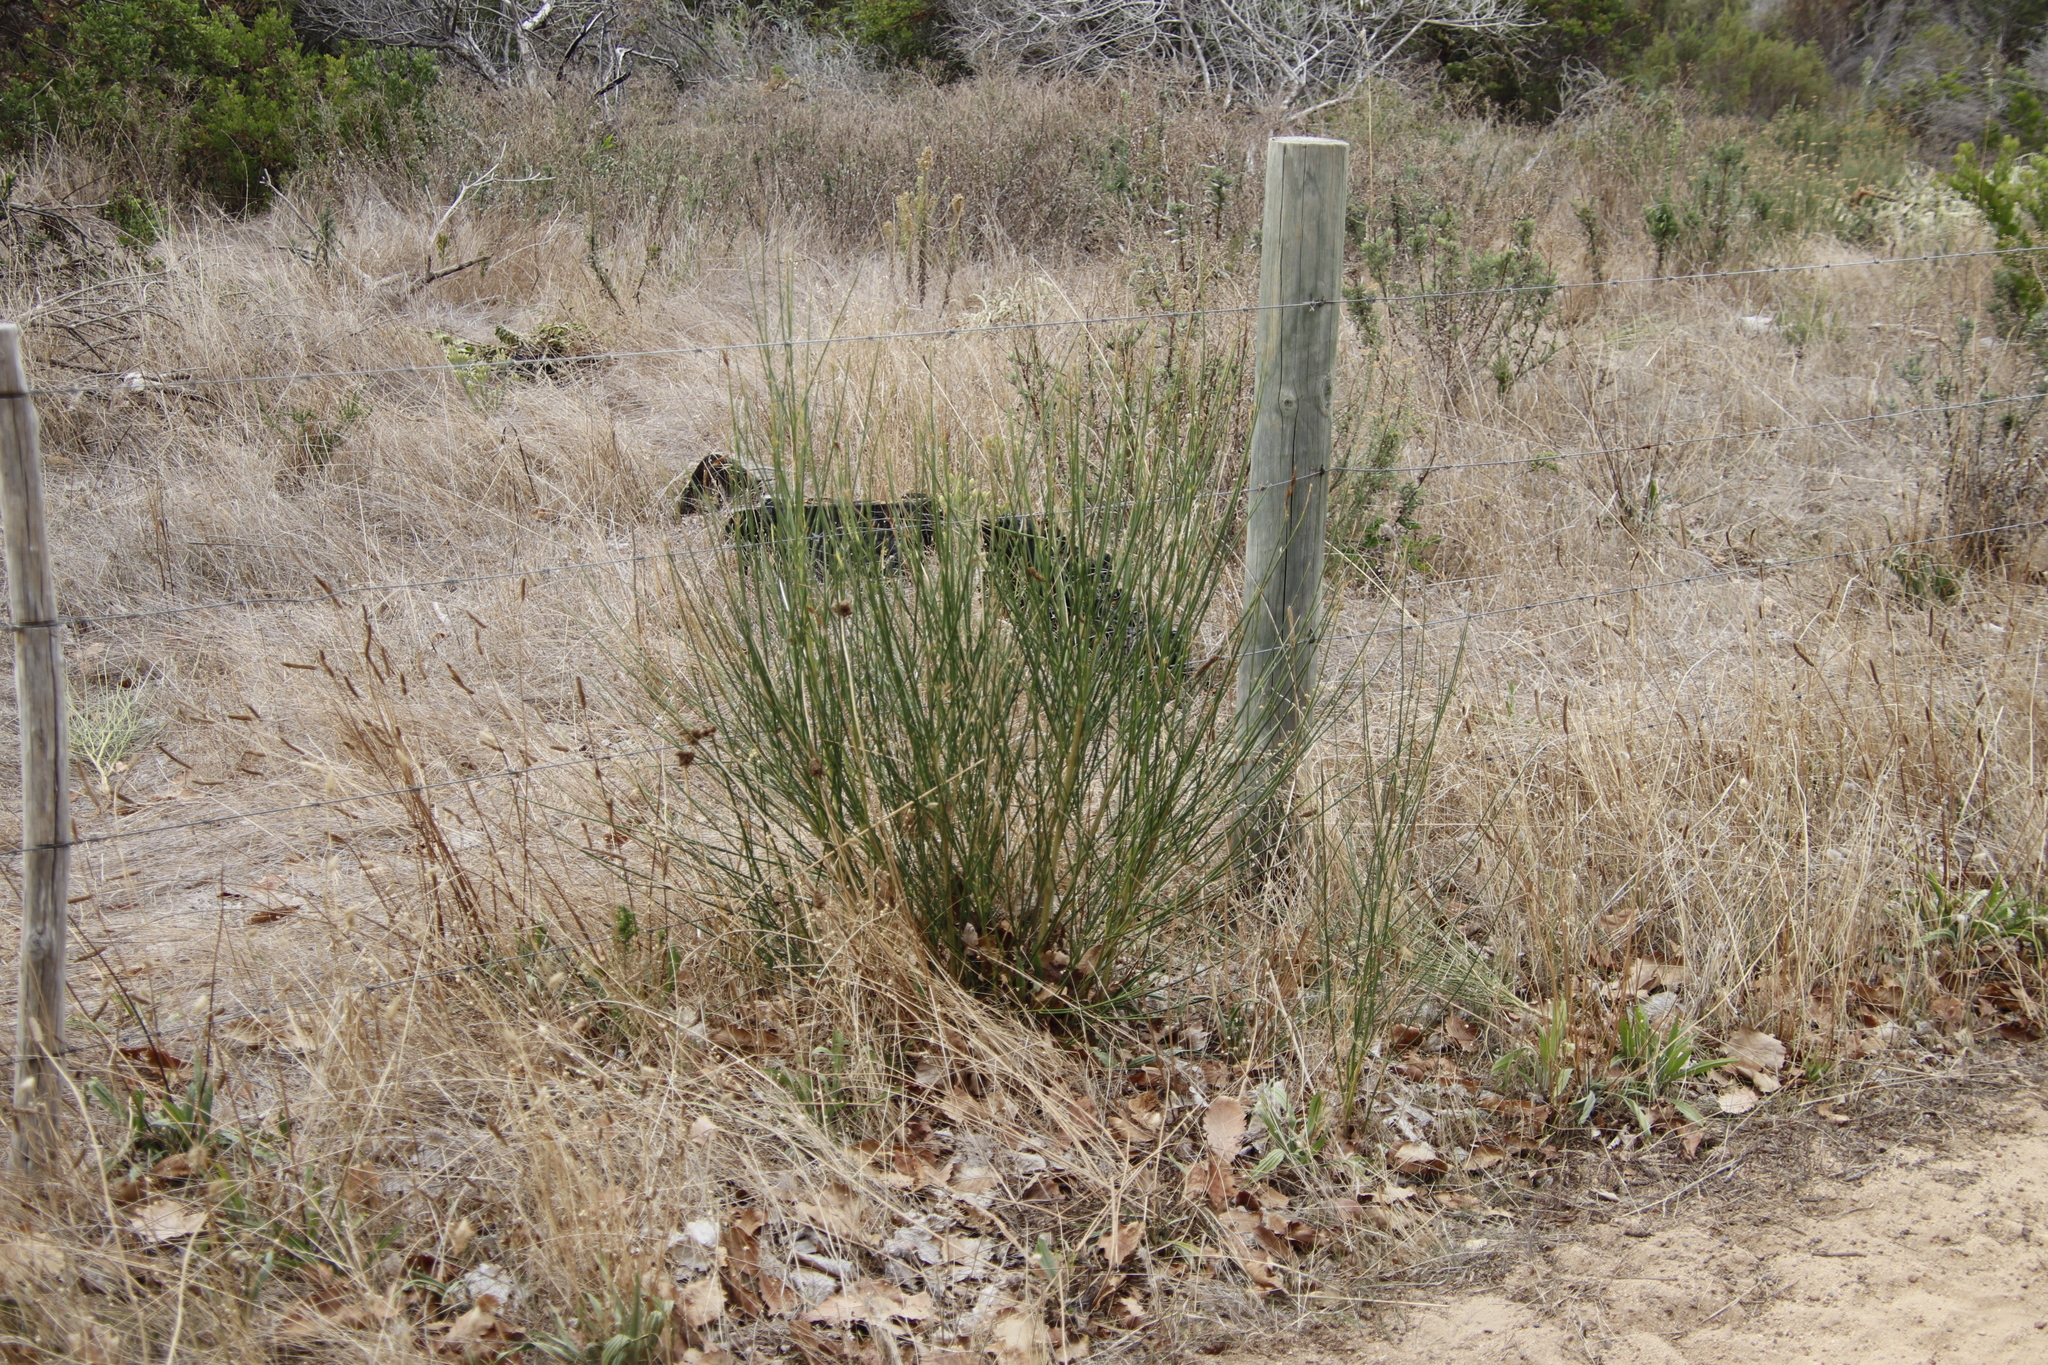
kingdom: Plantae
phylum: Tracheophyta
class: Magnoliopsida
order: Fabales
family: Fabaceae
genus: Spartium
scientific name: Spartium junceum
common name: Spanish broom
